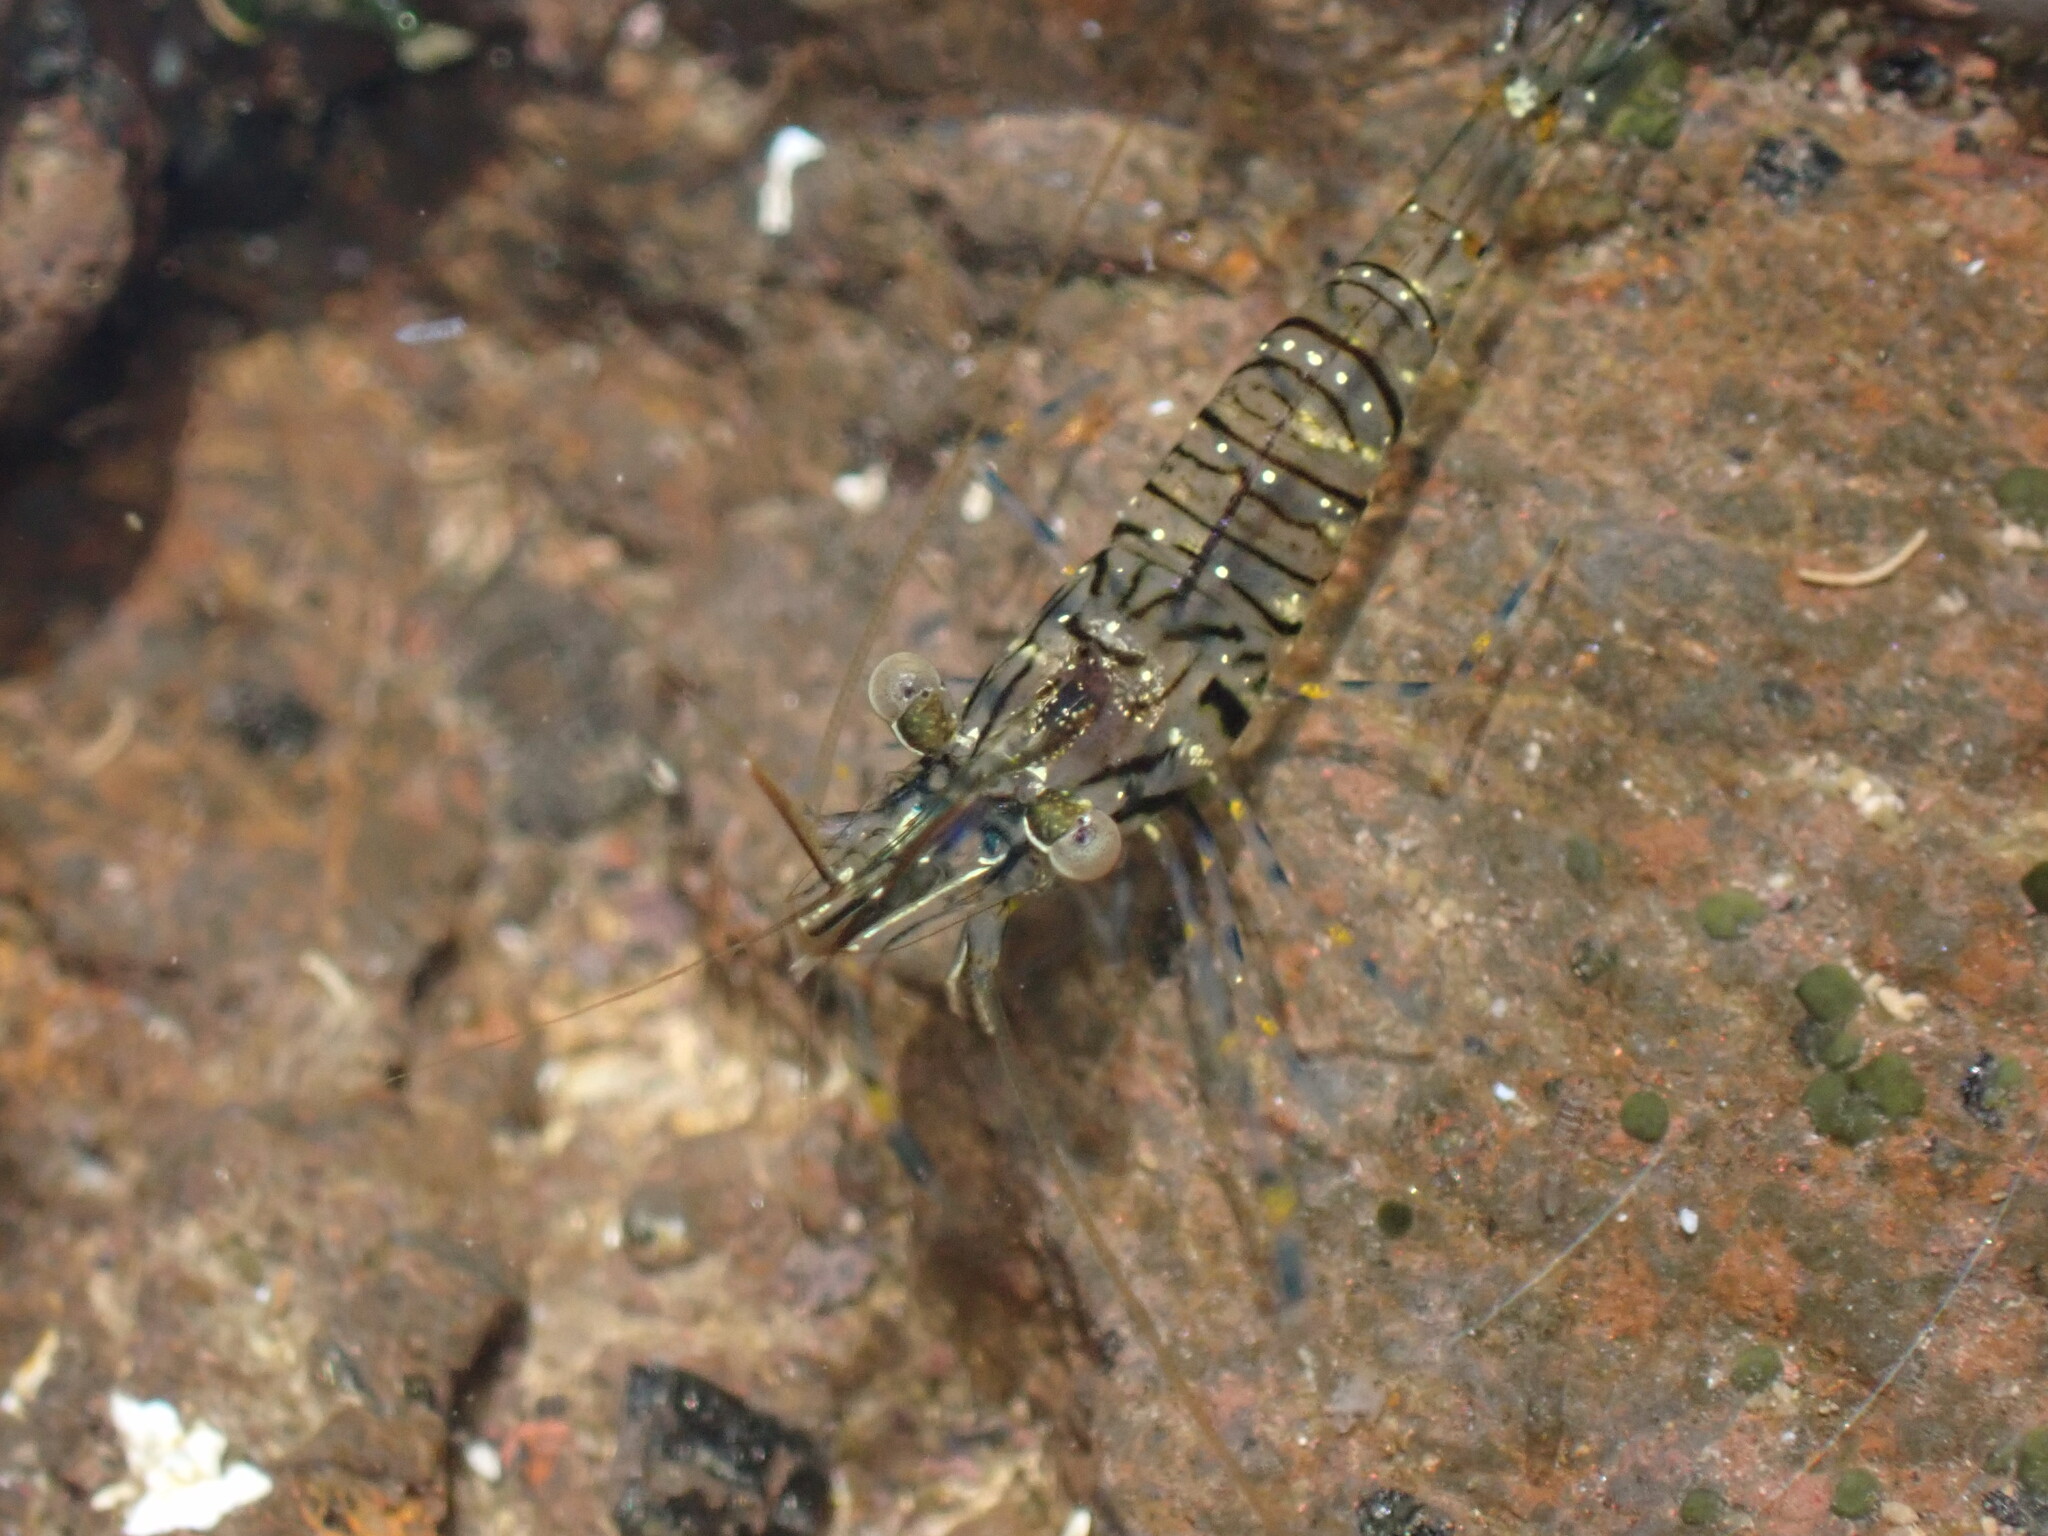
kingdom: Animalia
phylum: Arthropoda
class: Malacostraca
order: Decapoda
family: Palaemonidae
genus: Palaemon
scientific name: Palaemon elegans
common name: Grass prawm
